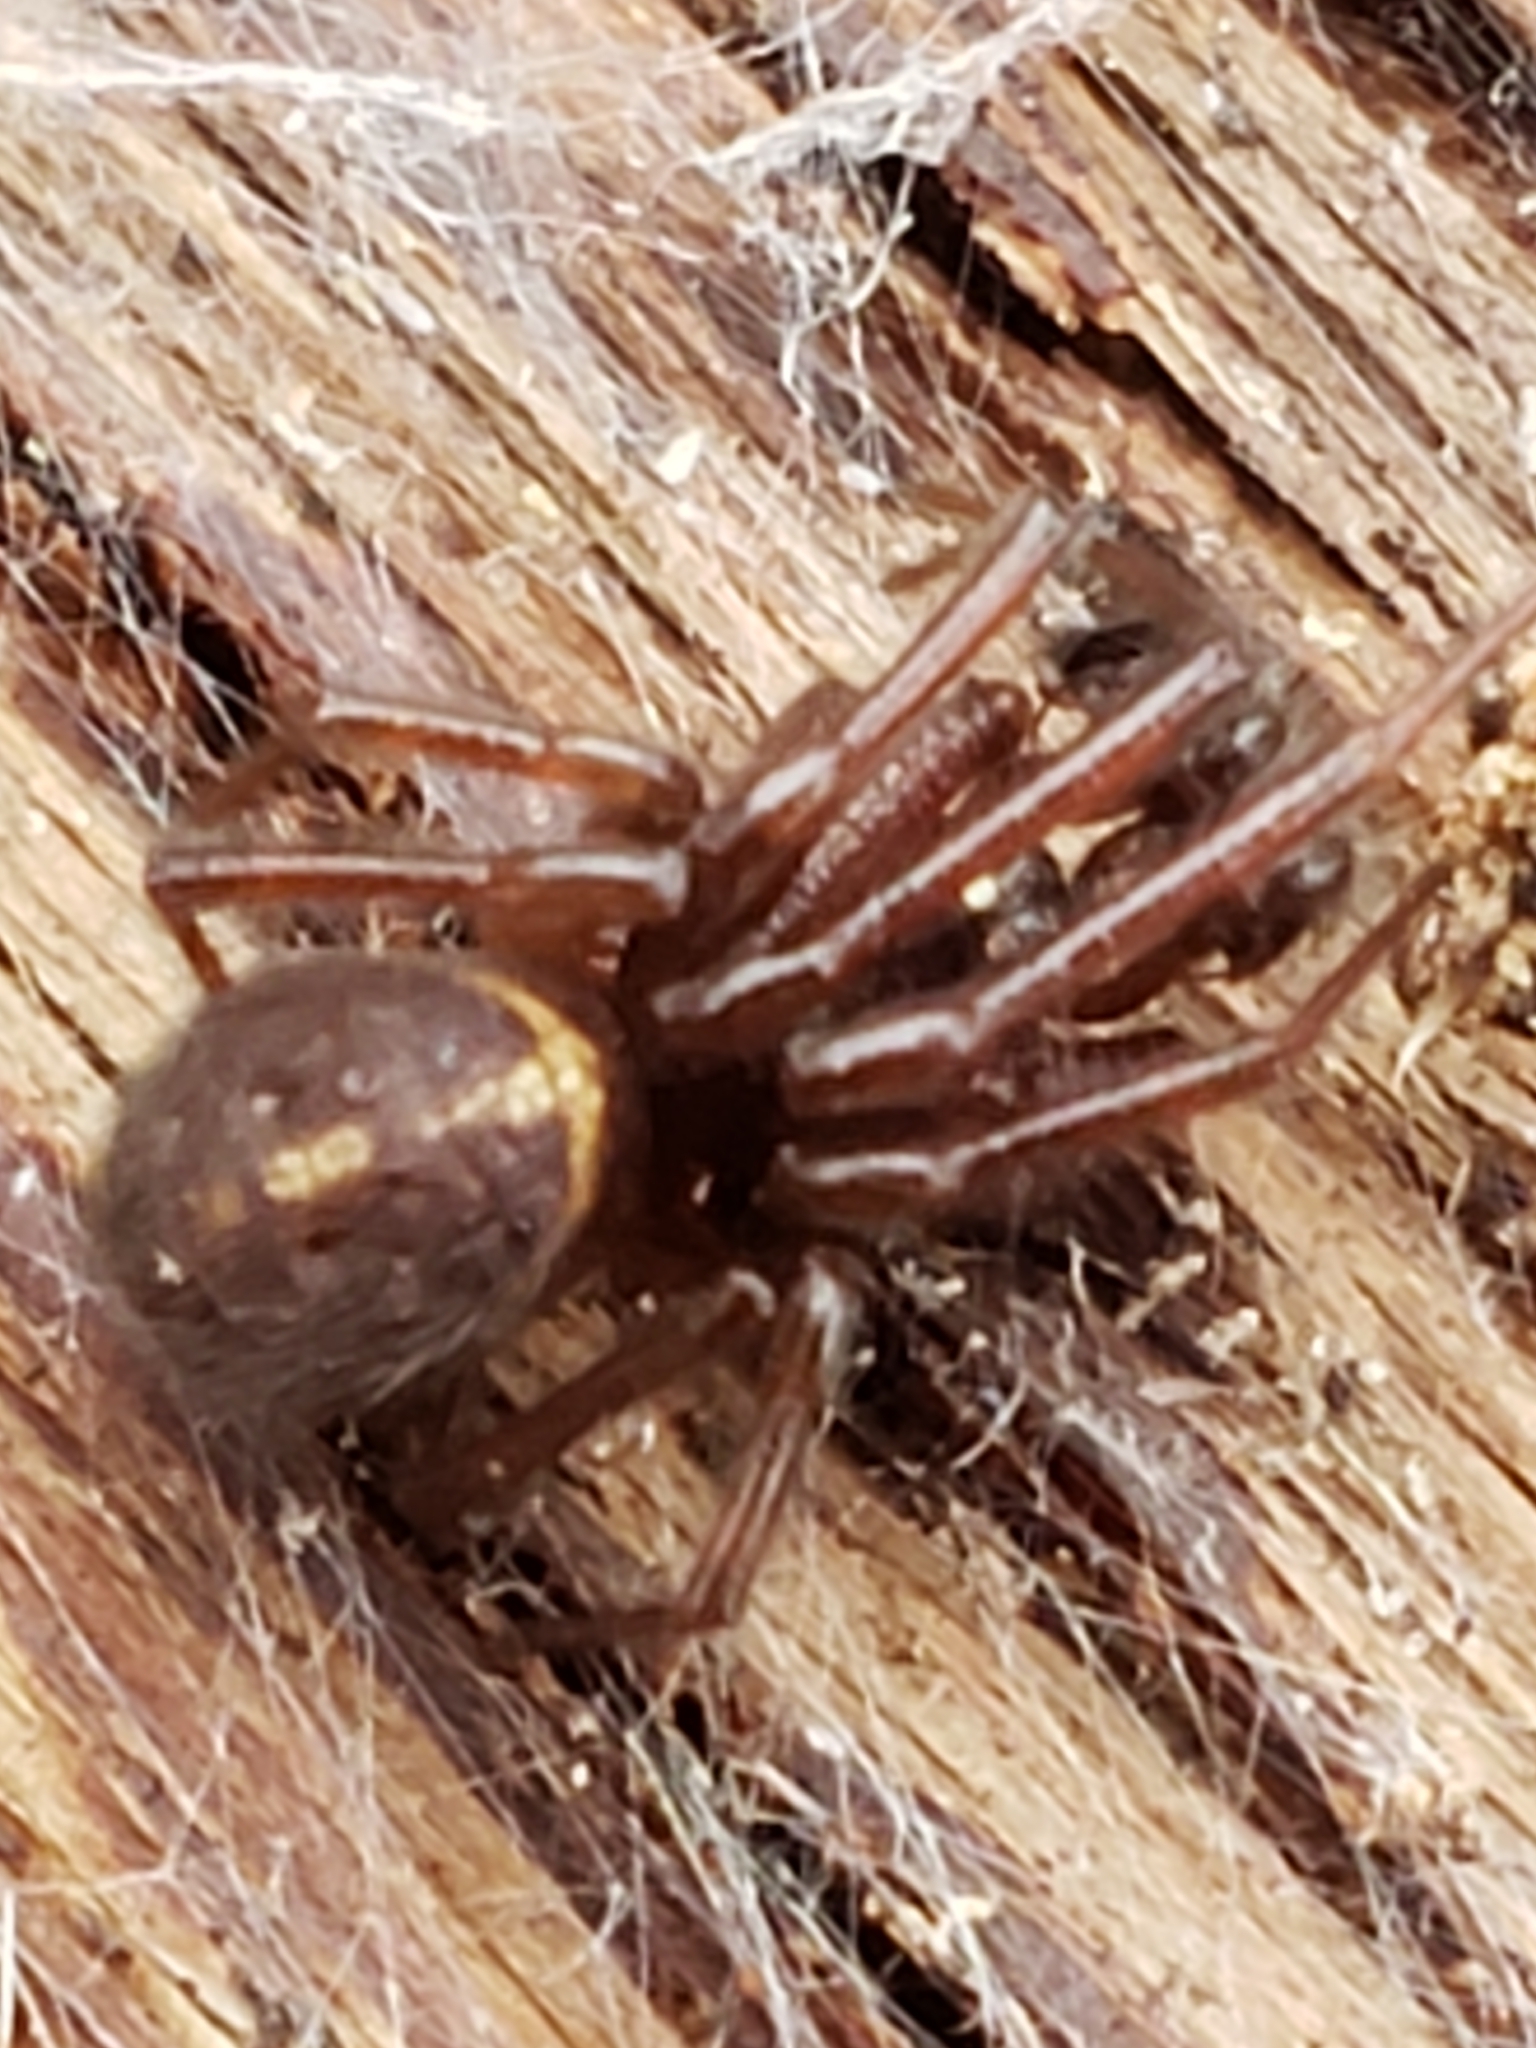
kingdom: Animalia
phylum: Arthropoda
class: Arachnida
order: Araneae
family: Theridiidae
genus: Steatoda
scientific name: Steatoda borealis
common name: Boreal combfoot
